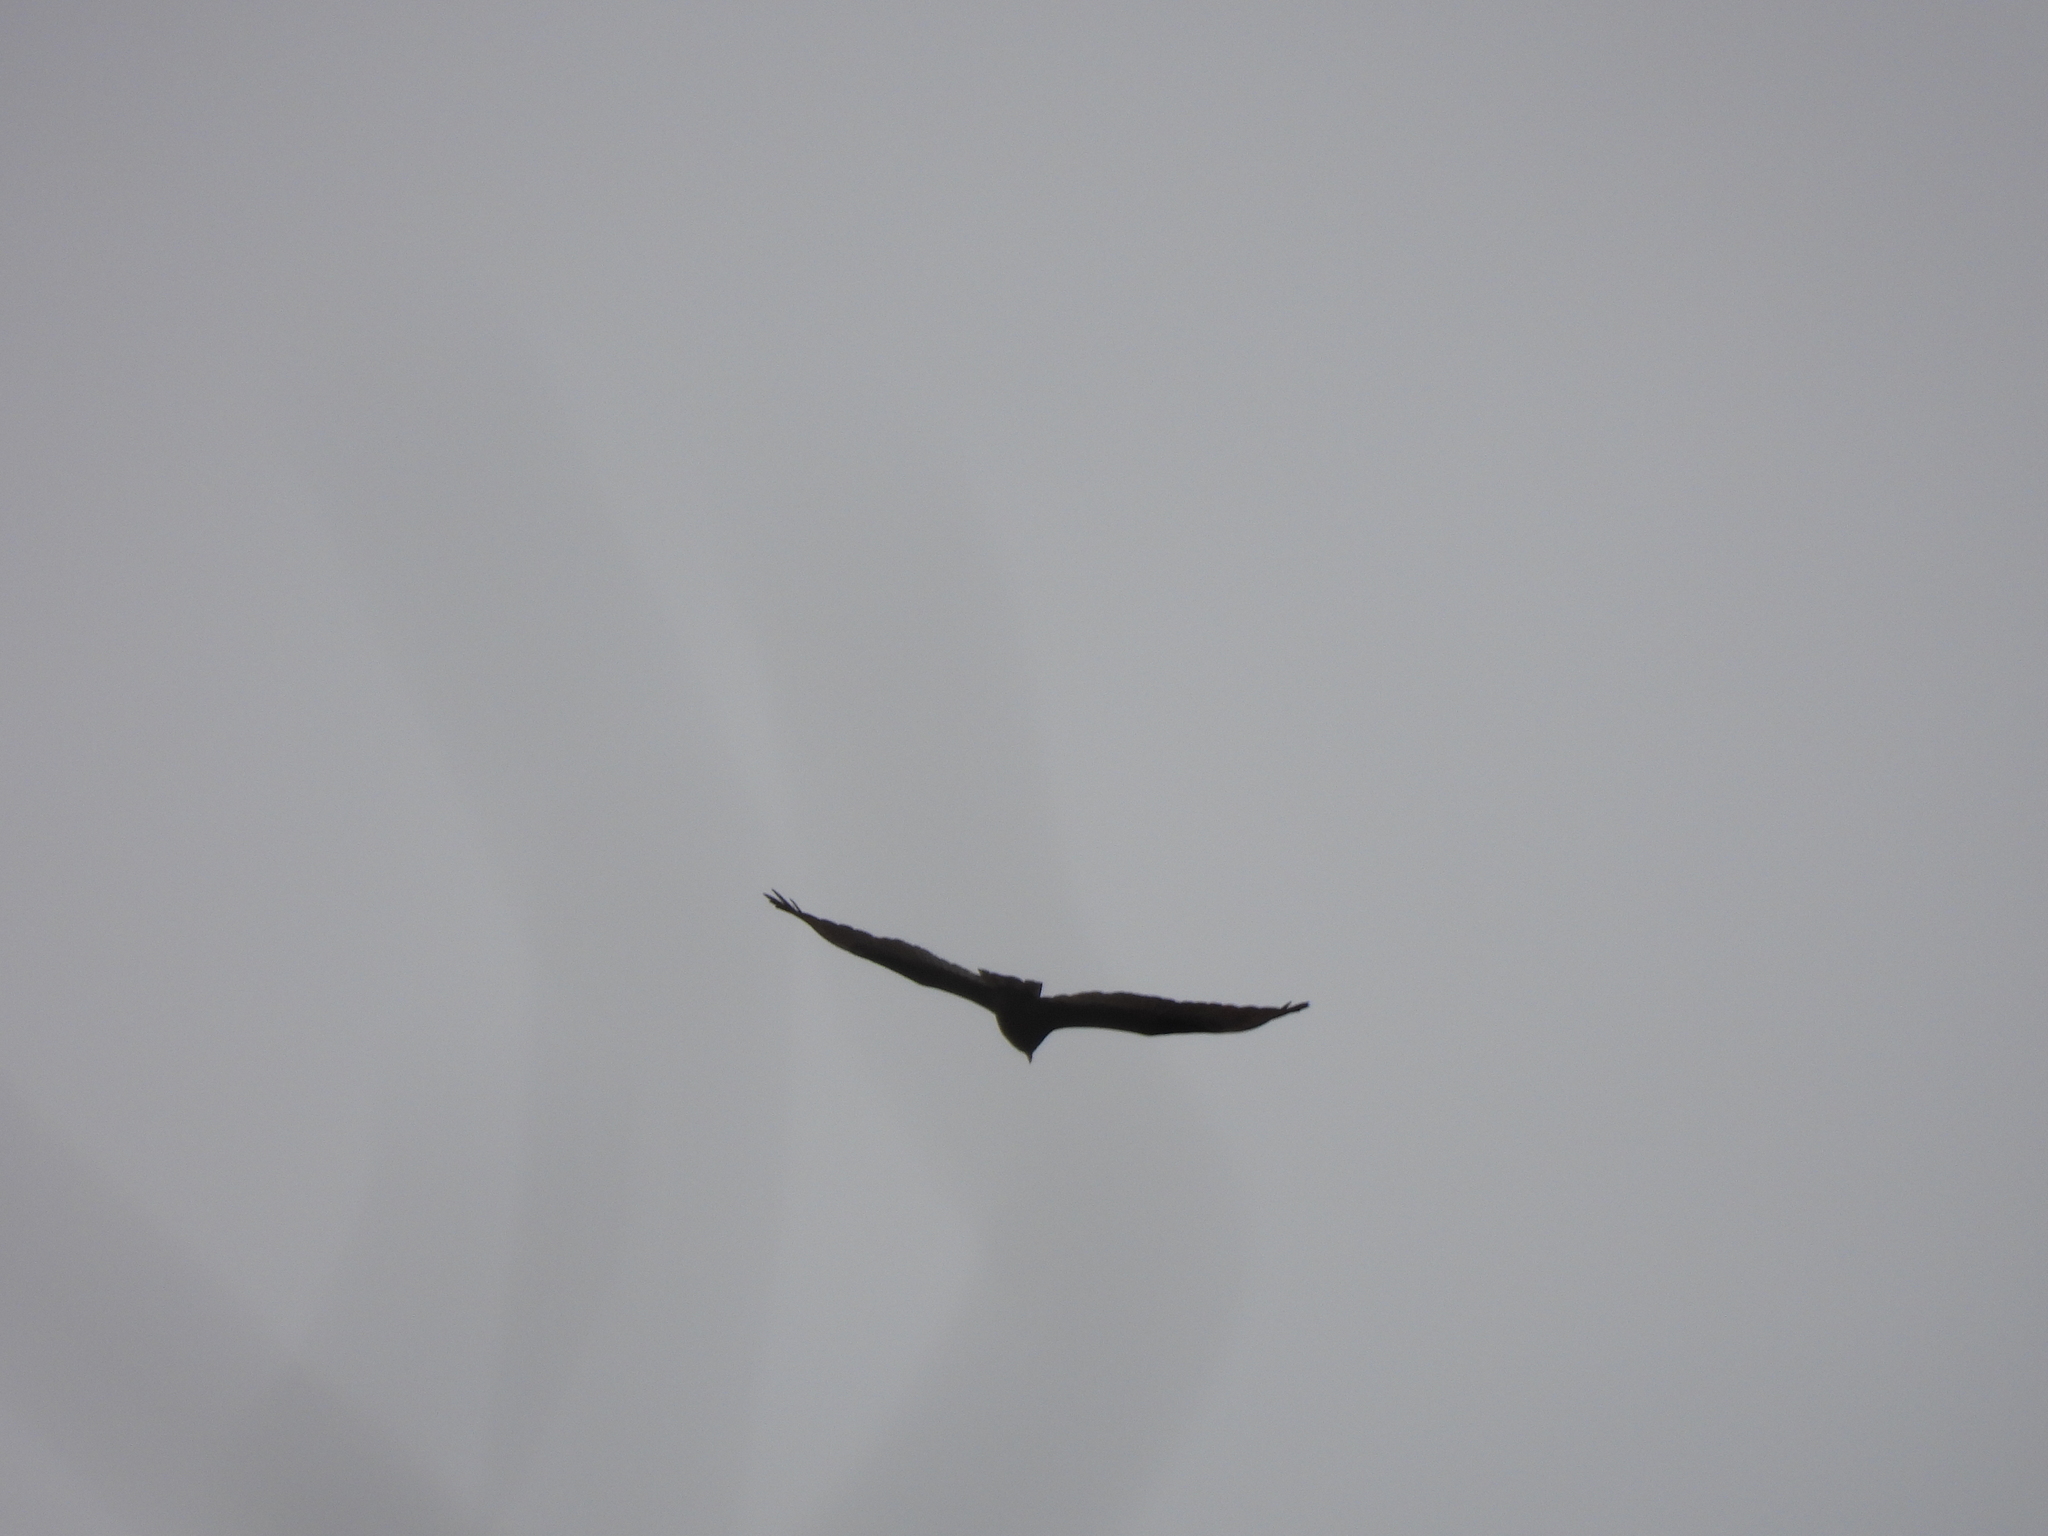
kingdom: Animalia
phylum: Chordata
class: Aves
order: Accipitriformes
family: Cathartidae
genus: Cathartes
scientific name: Cathartes aura
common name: Turkey vulture
